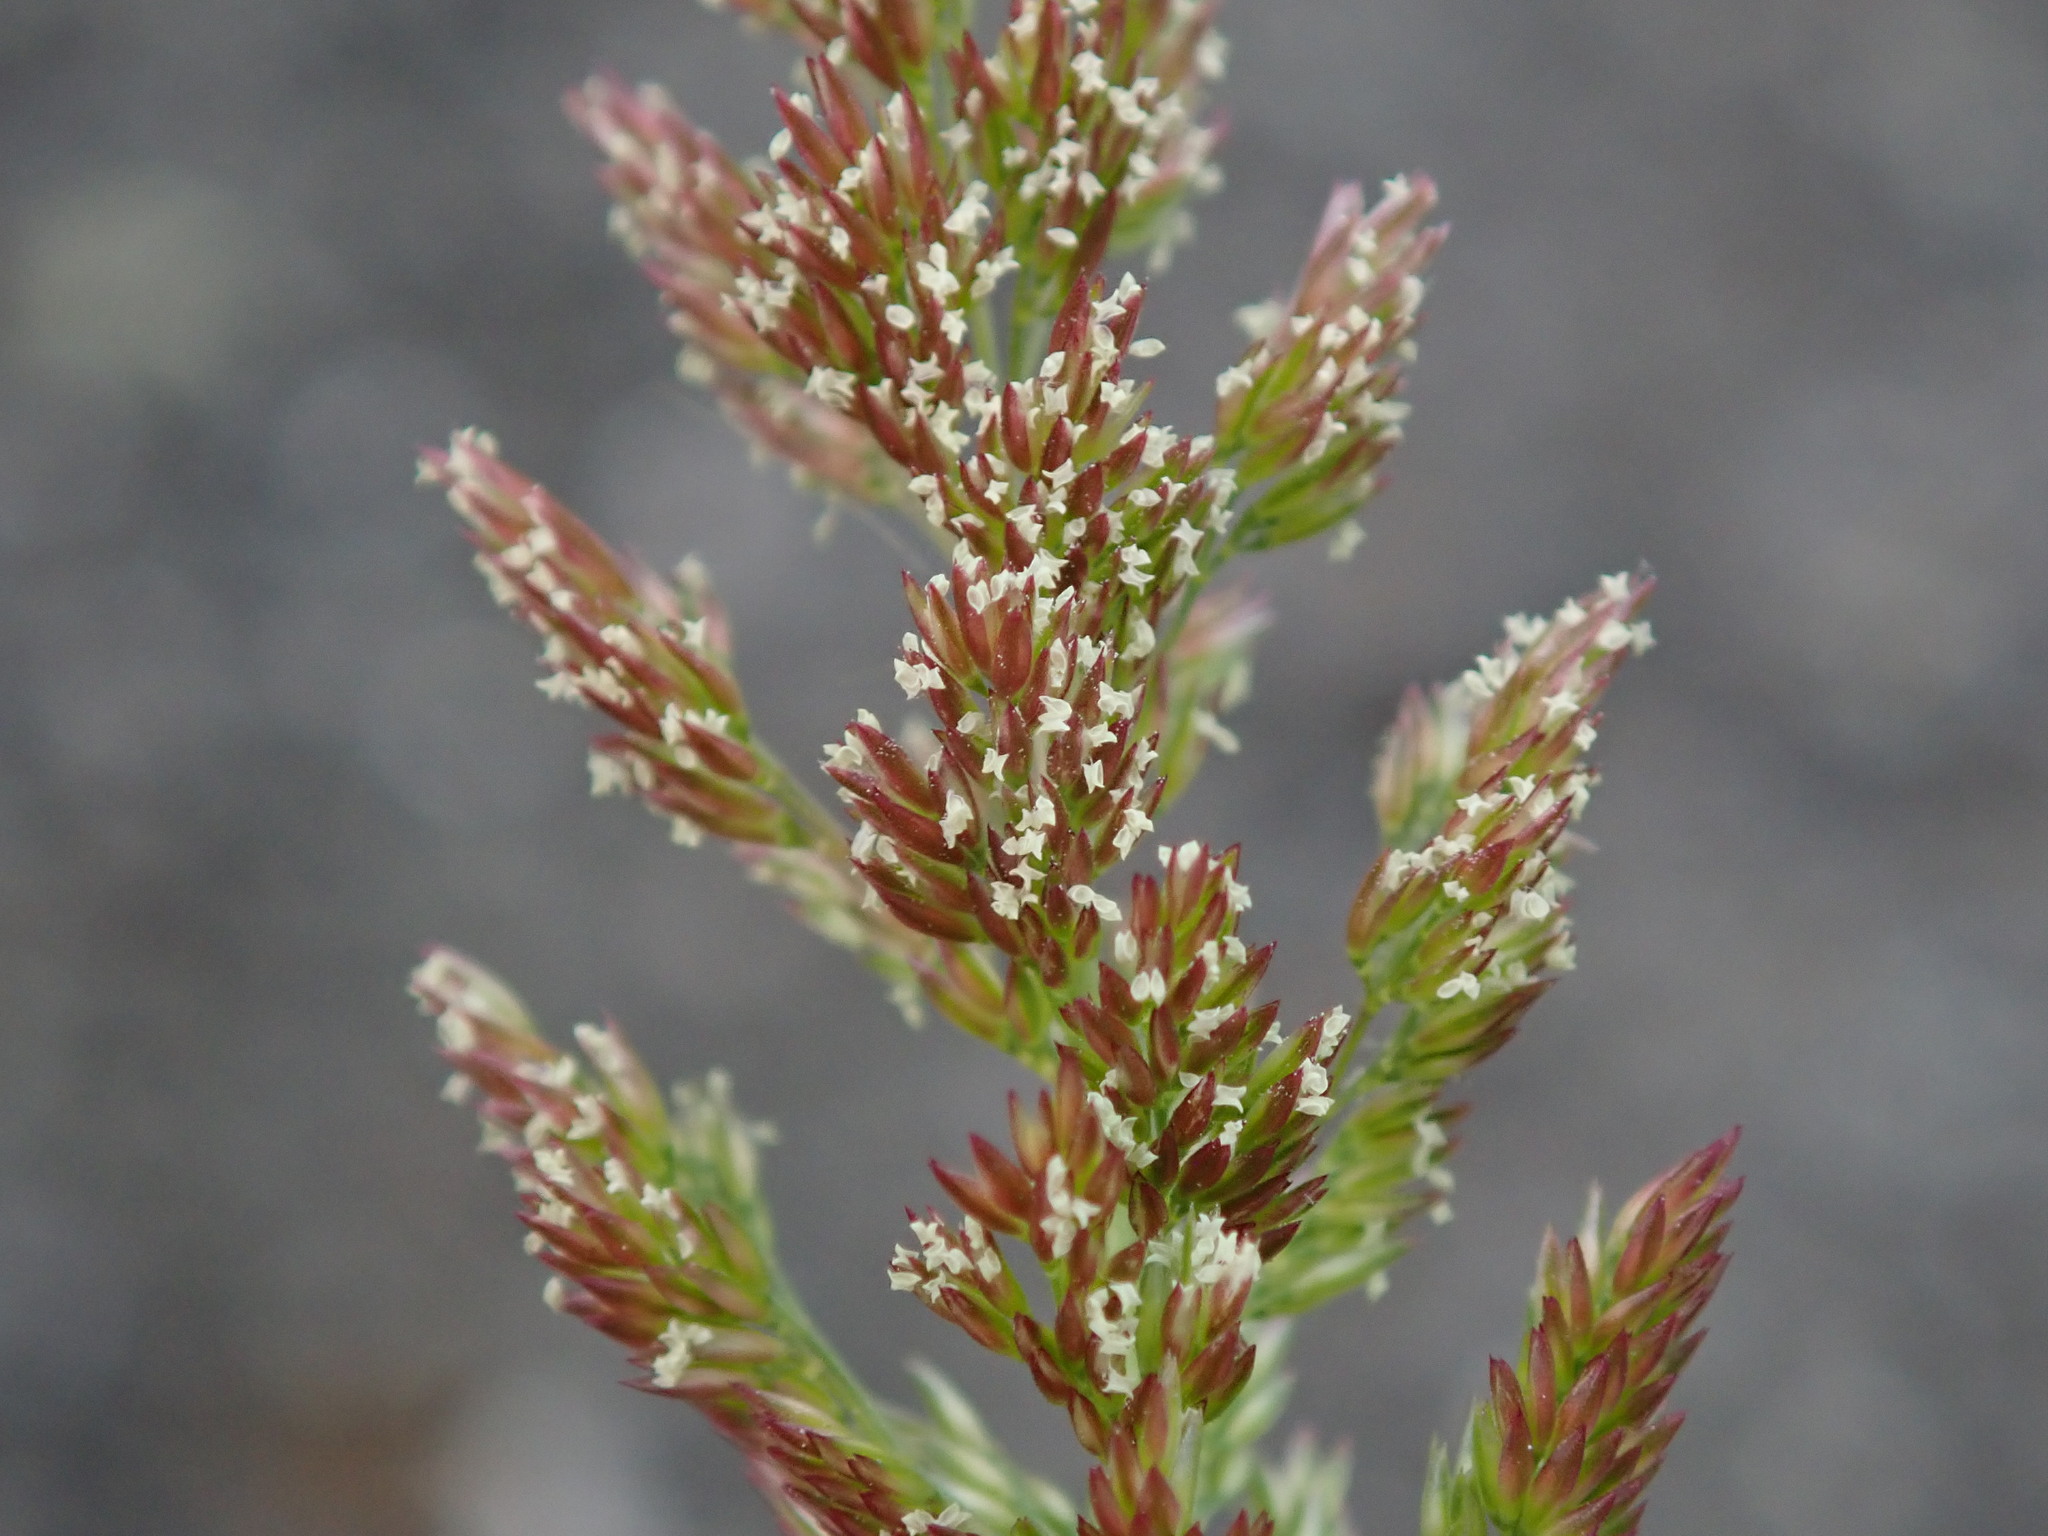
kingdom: Plantae
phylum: Tracheophyta
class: Liliopsida
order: Poales
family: Poaceae
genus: Polypogon
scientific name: Polypogon viridis
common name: Water bent
